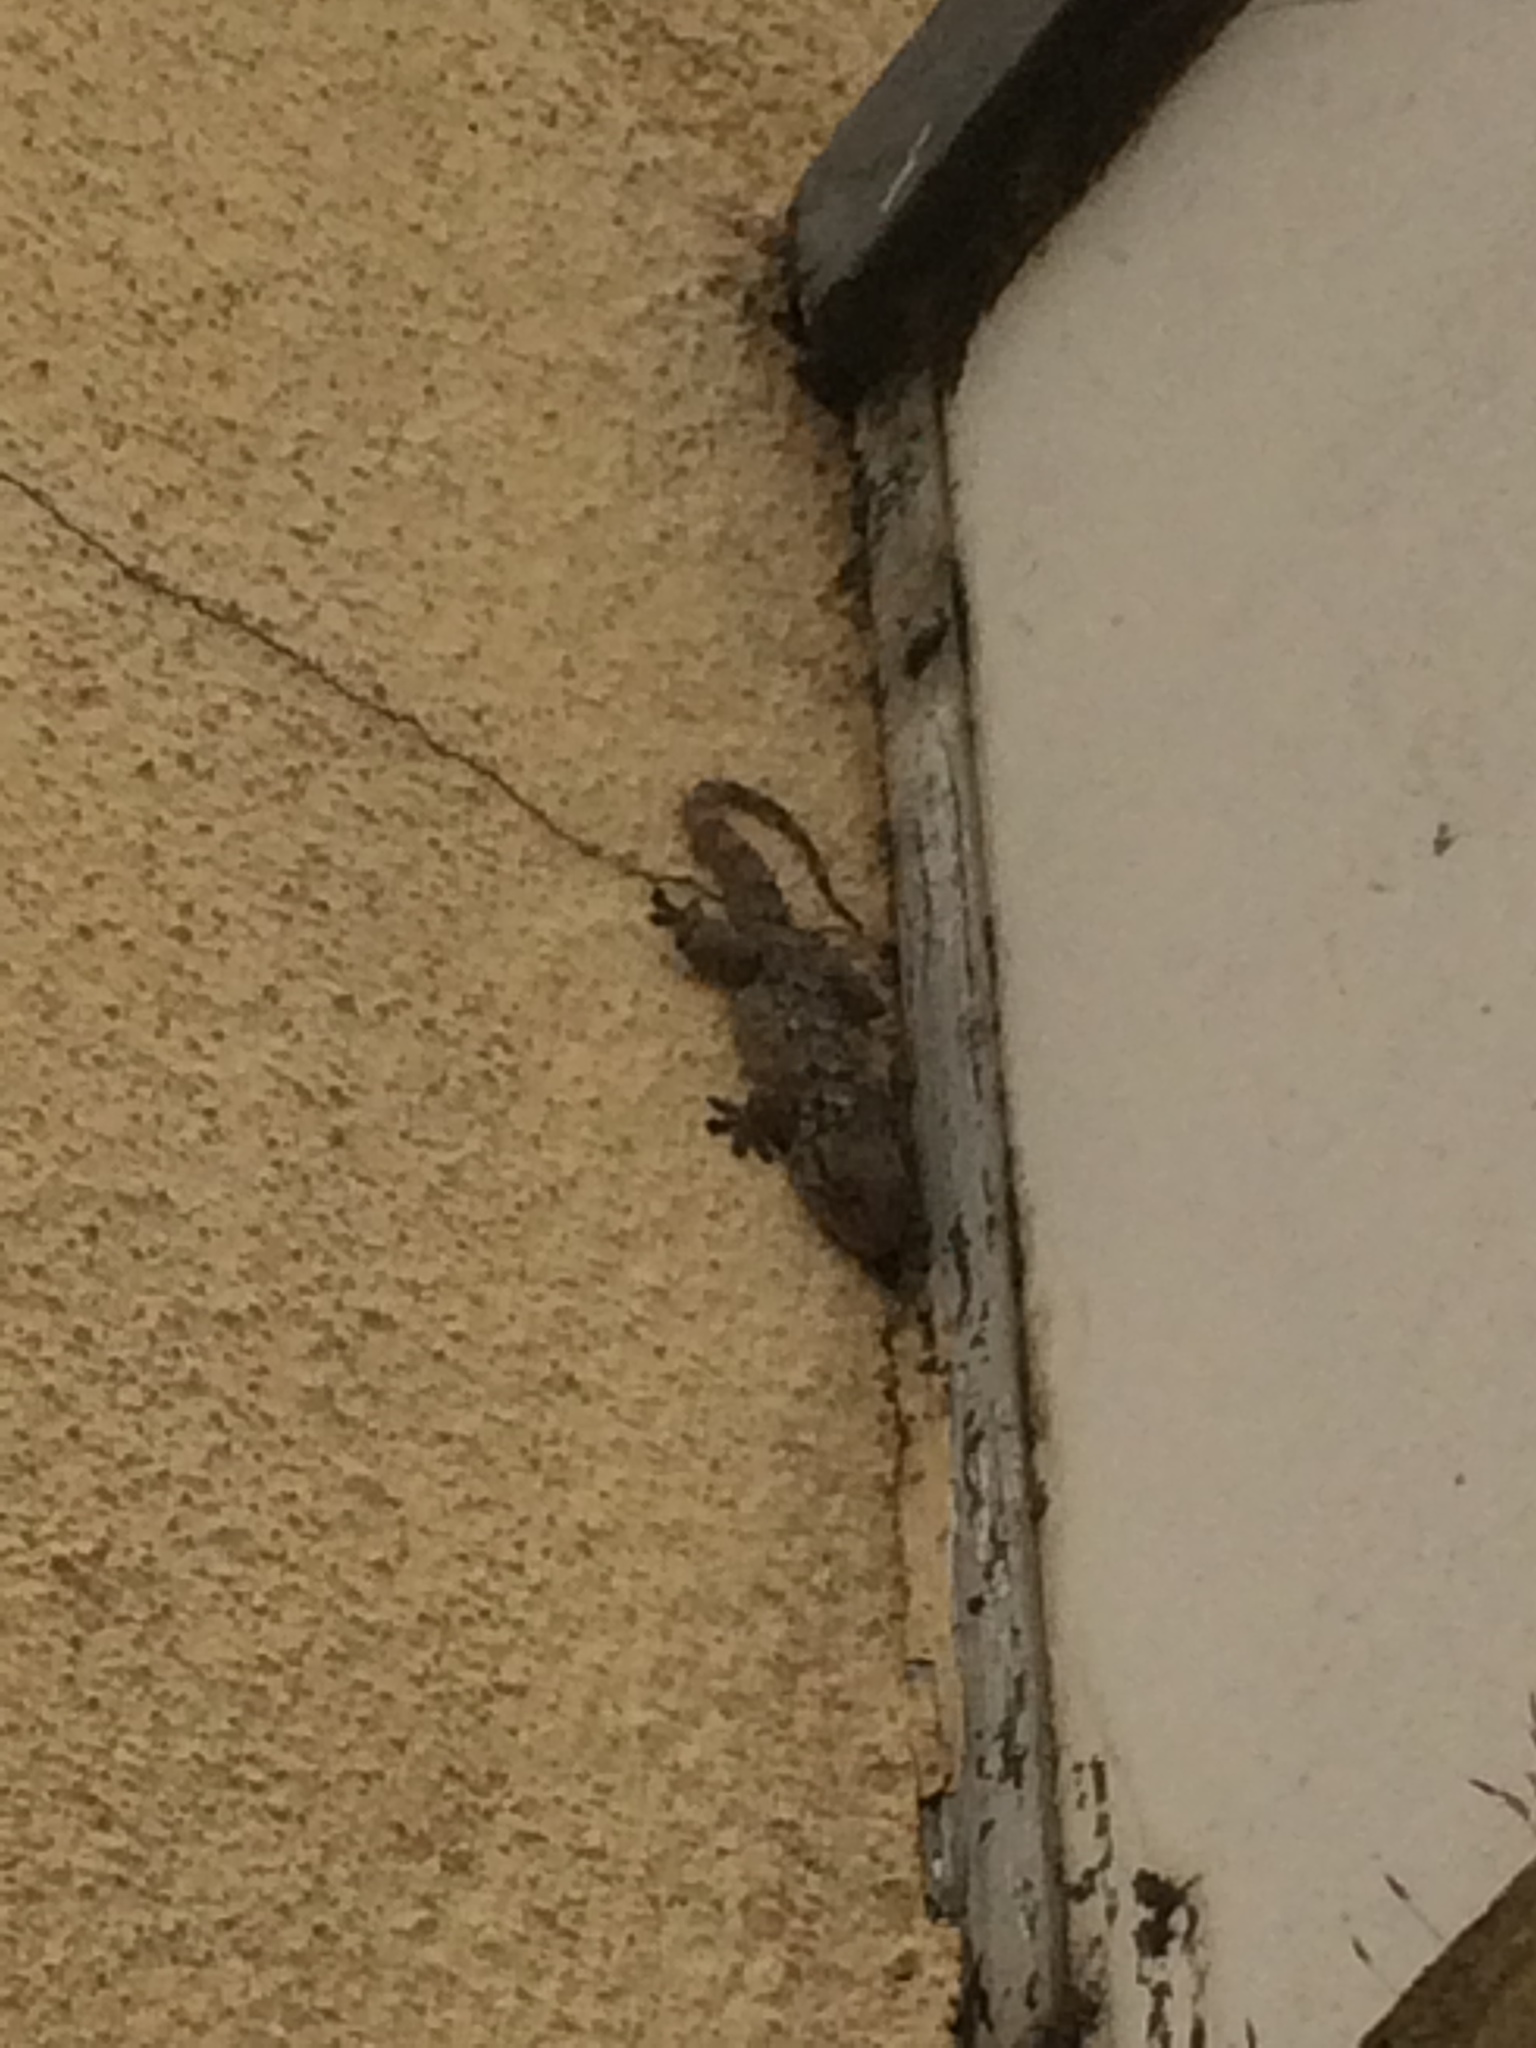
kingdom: Animalia
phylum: Chordata
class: Squamata
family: Phyllodactylidae
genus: Tarentola
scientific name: Tarentola mauritanica
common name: Moorish gecko
